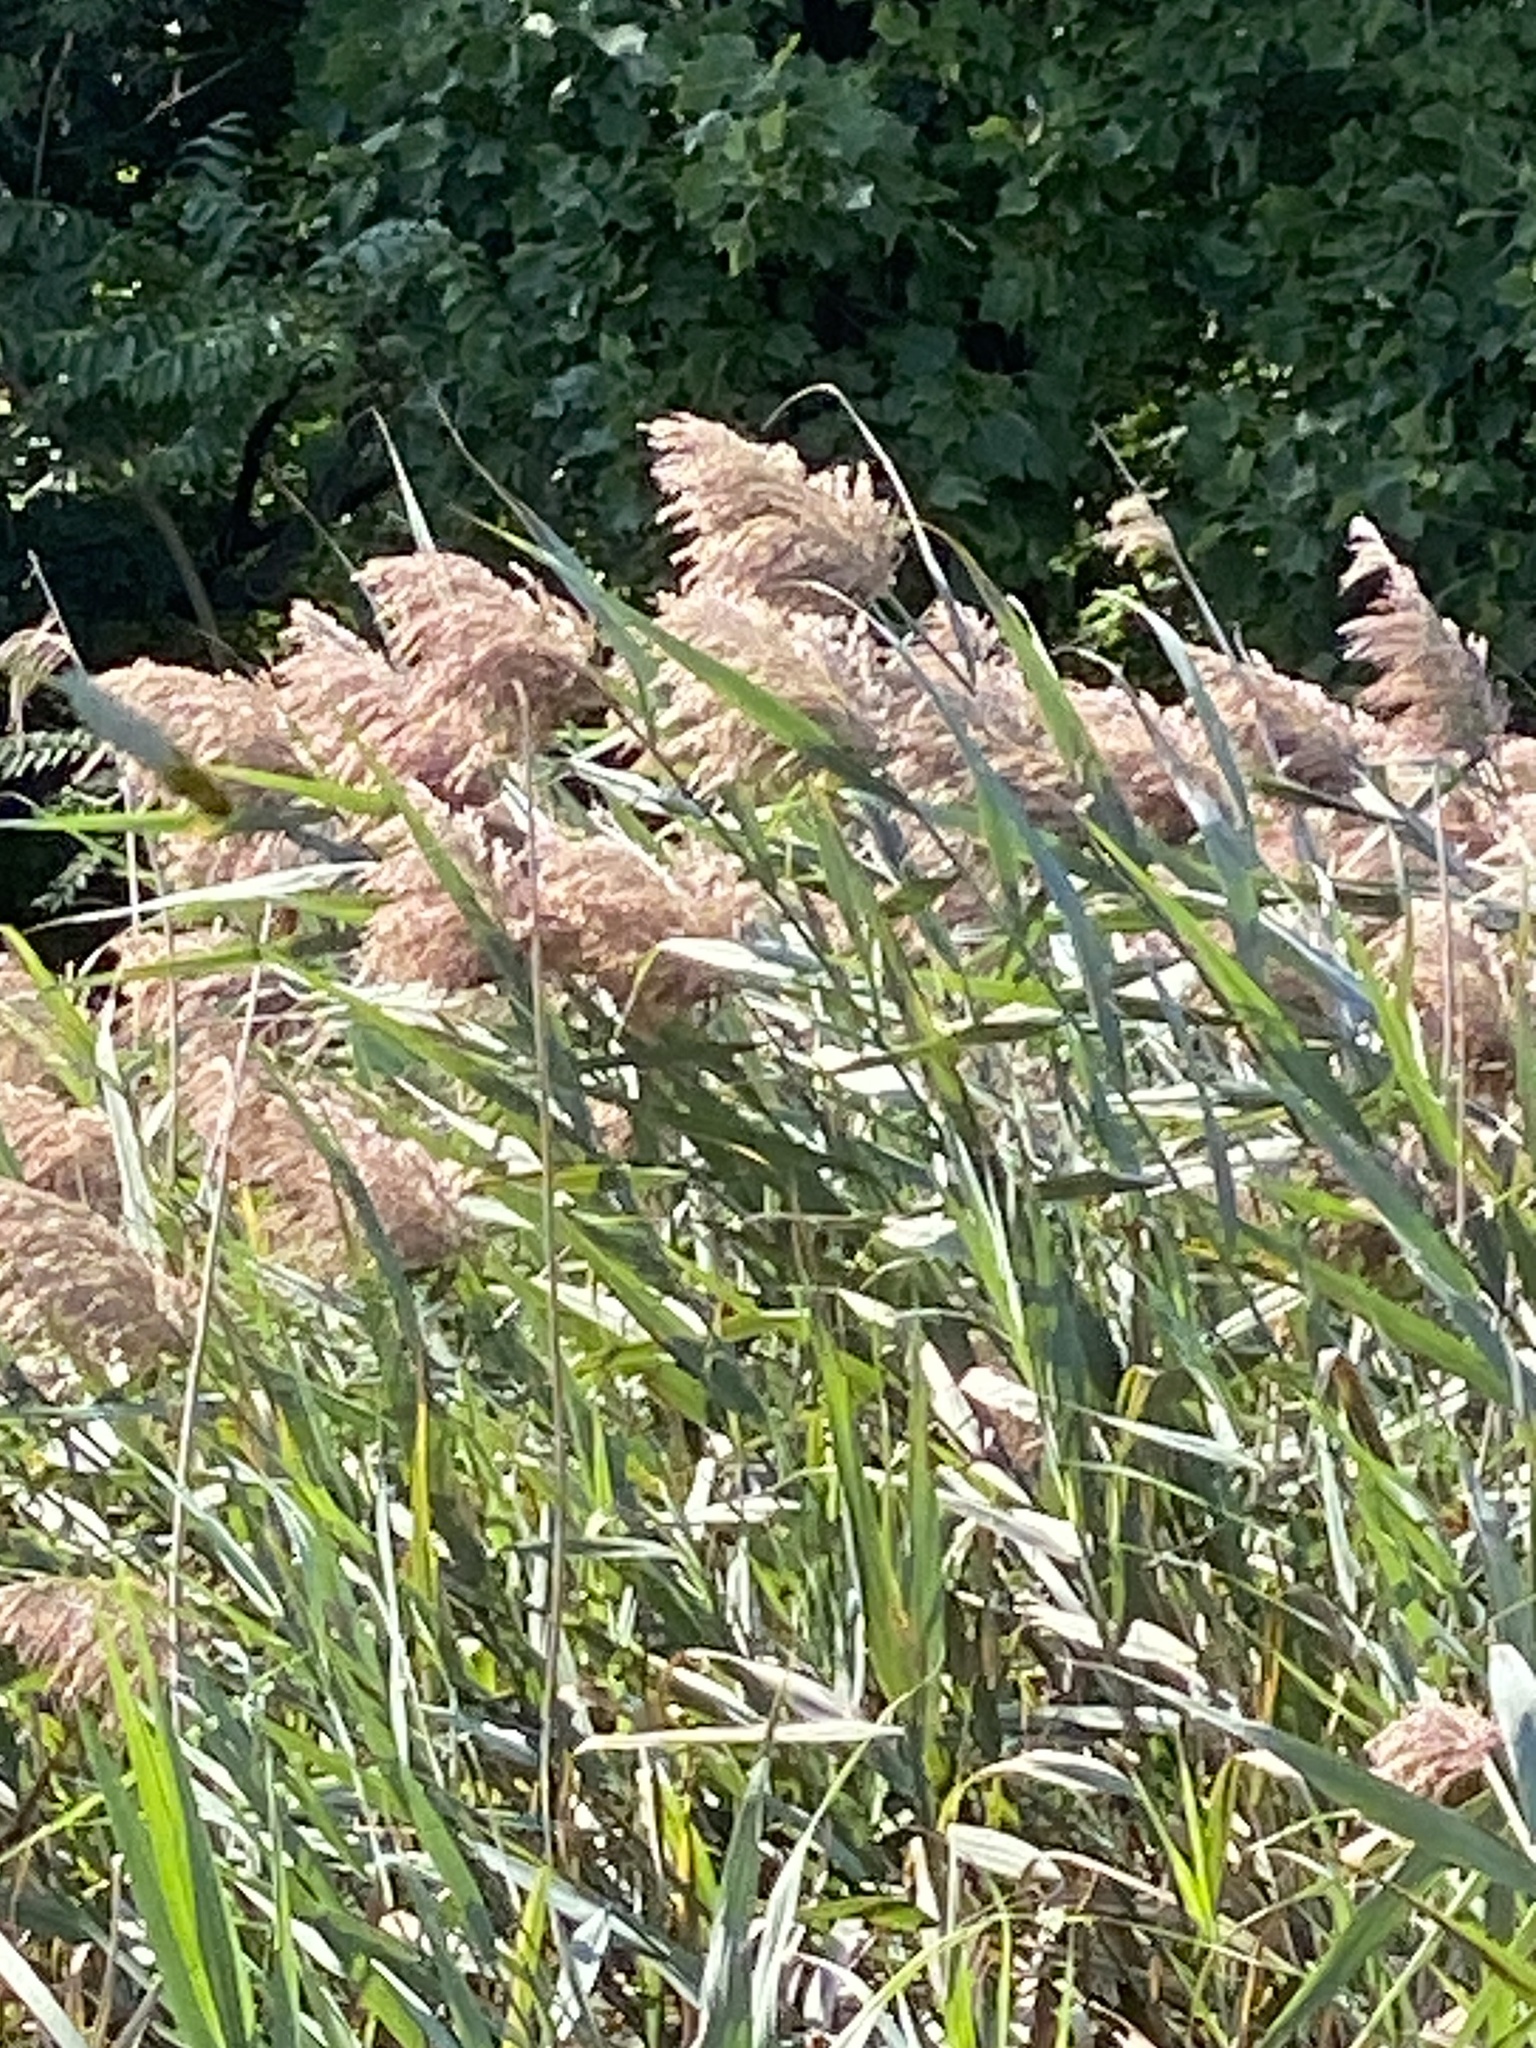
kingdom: Plantae
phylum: Tracheophyta
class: Liliopsida
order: Poales
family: Poaceae
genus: Phragmites
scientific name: Phragmites australis
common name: Common reed
